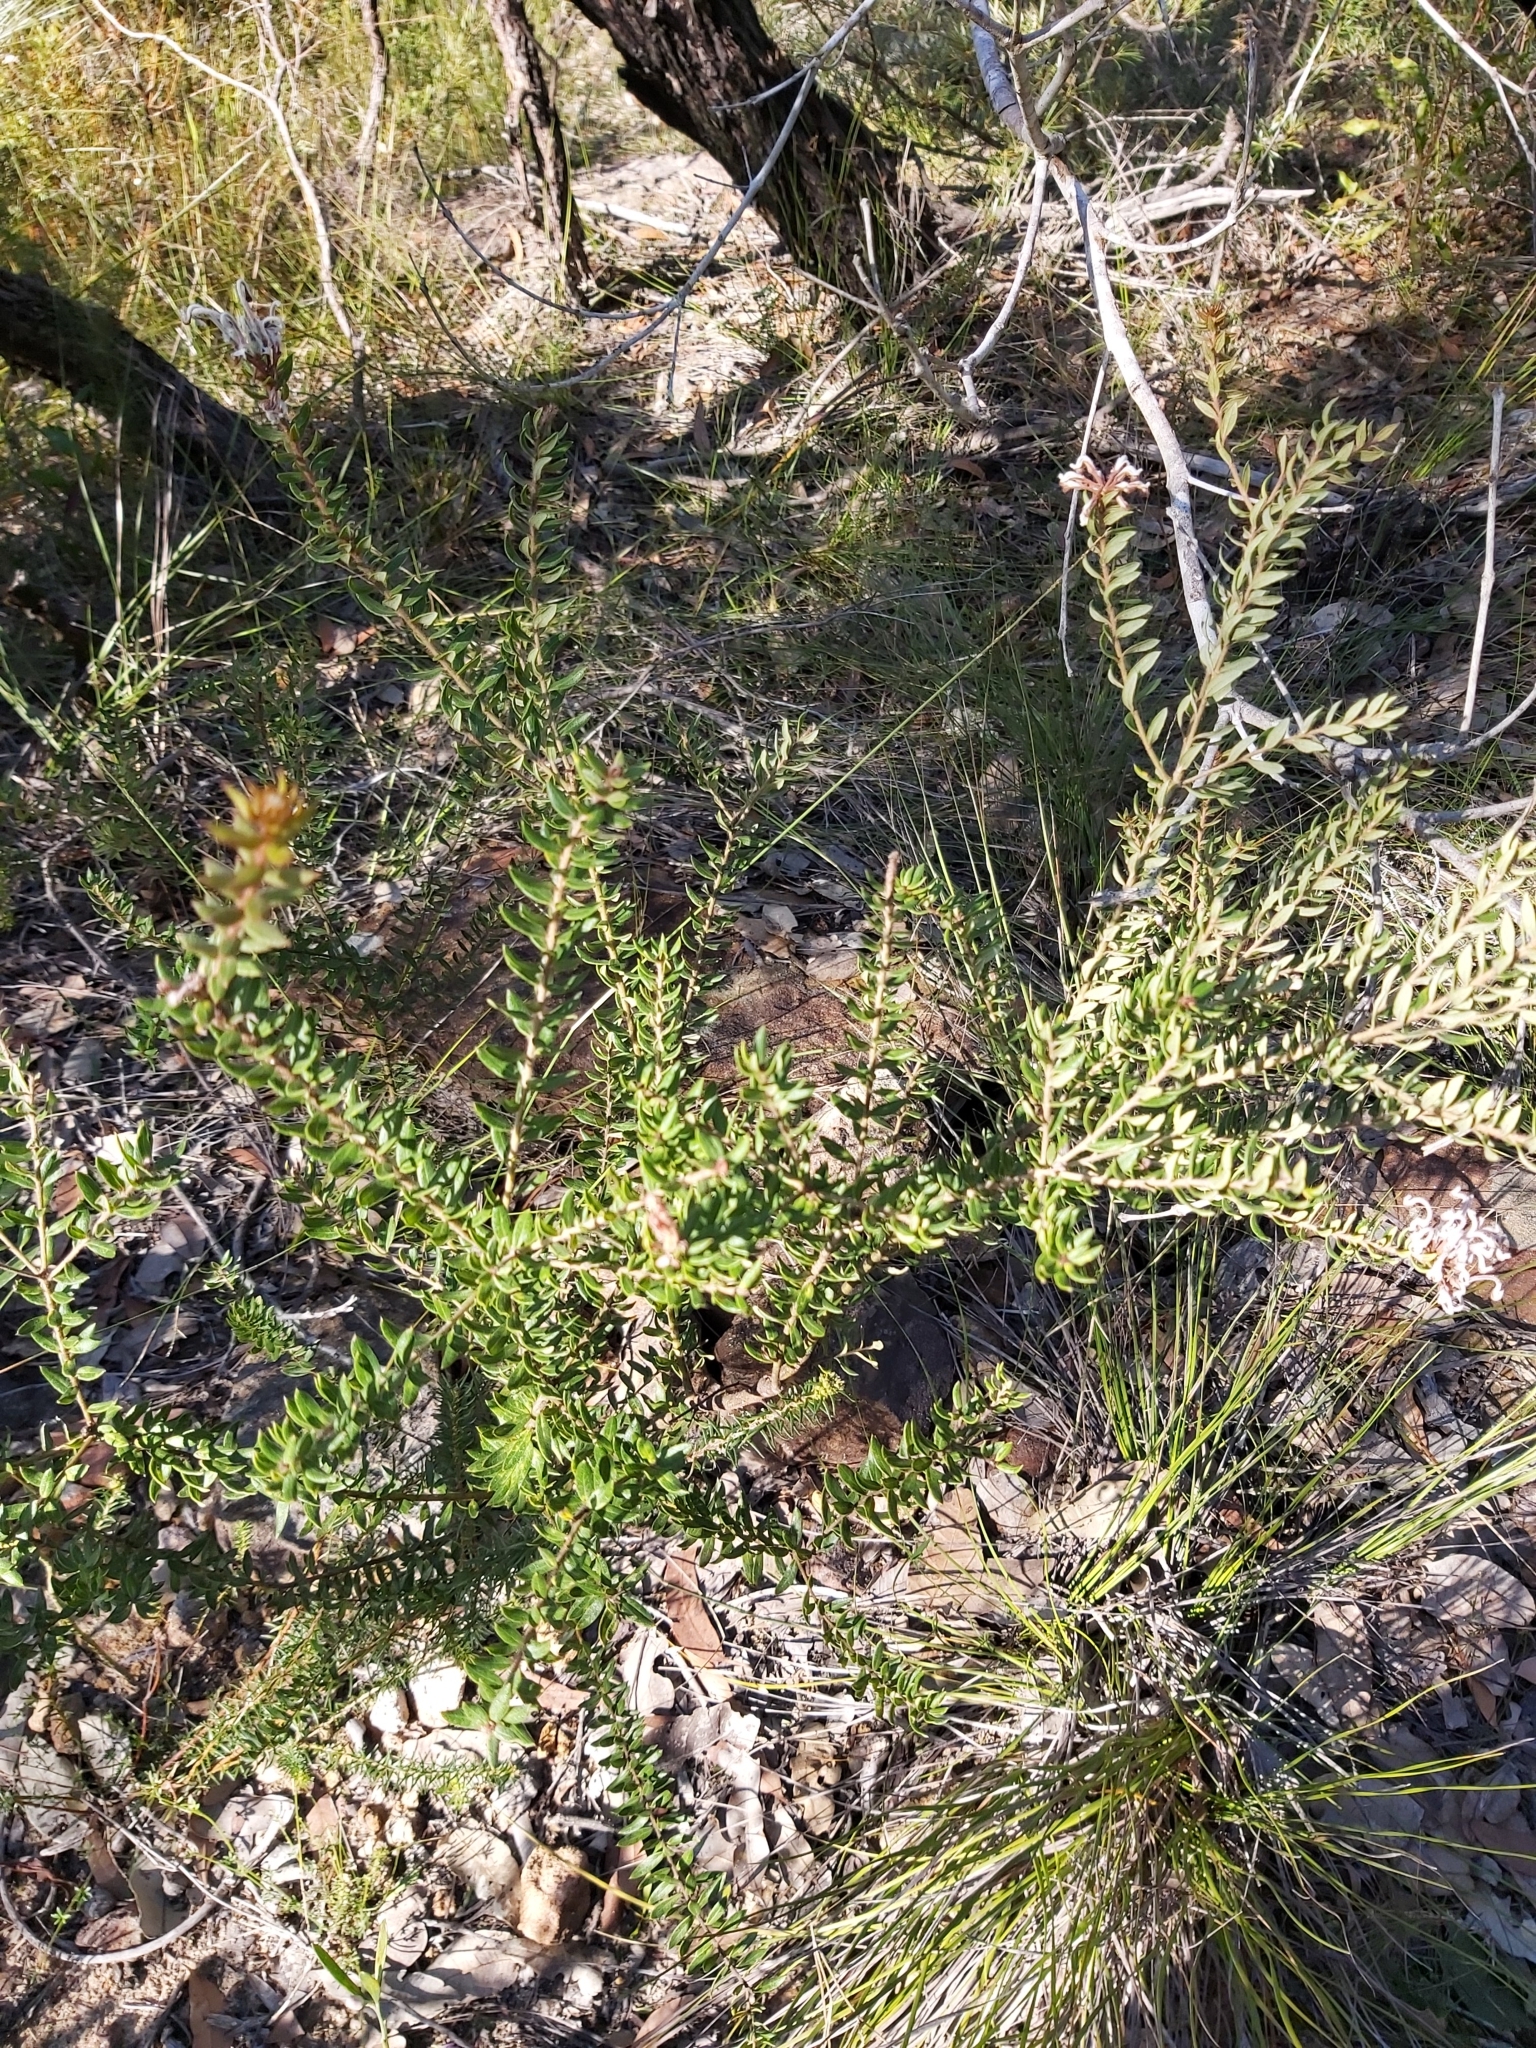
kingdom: Plantae
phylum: Tracheophyta
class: Magnoliopsida
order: Proteales
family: Proteaceae
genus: Grevillea
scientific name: Grevillea buxifolia
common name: Grey spiderflower
